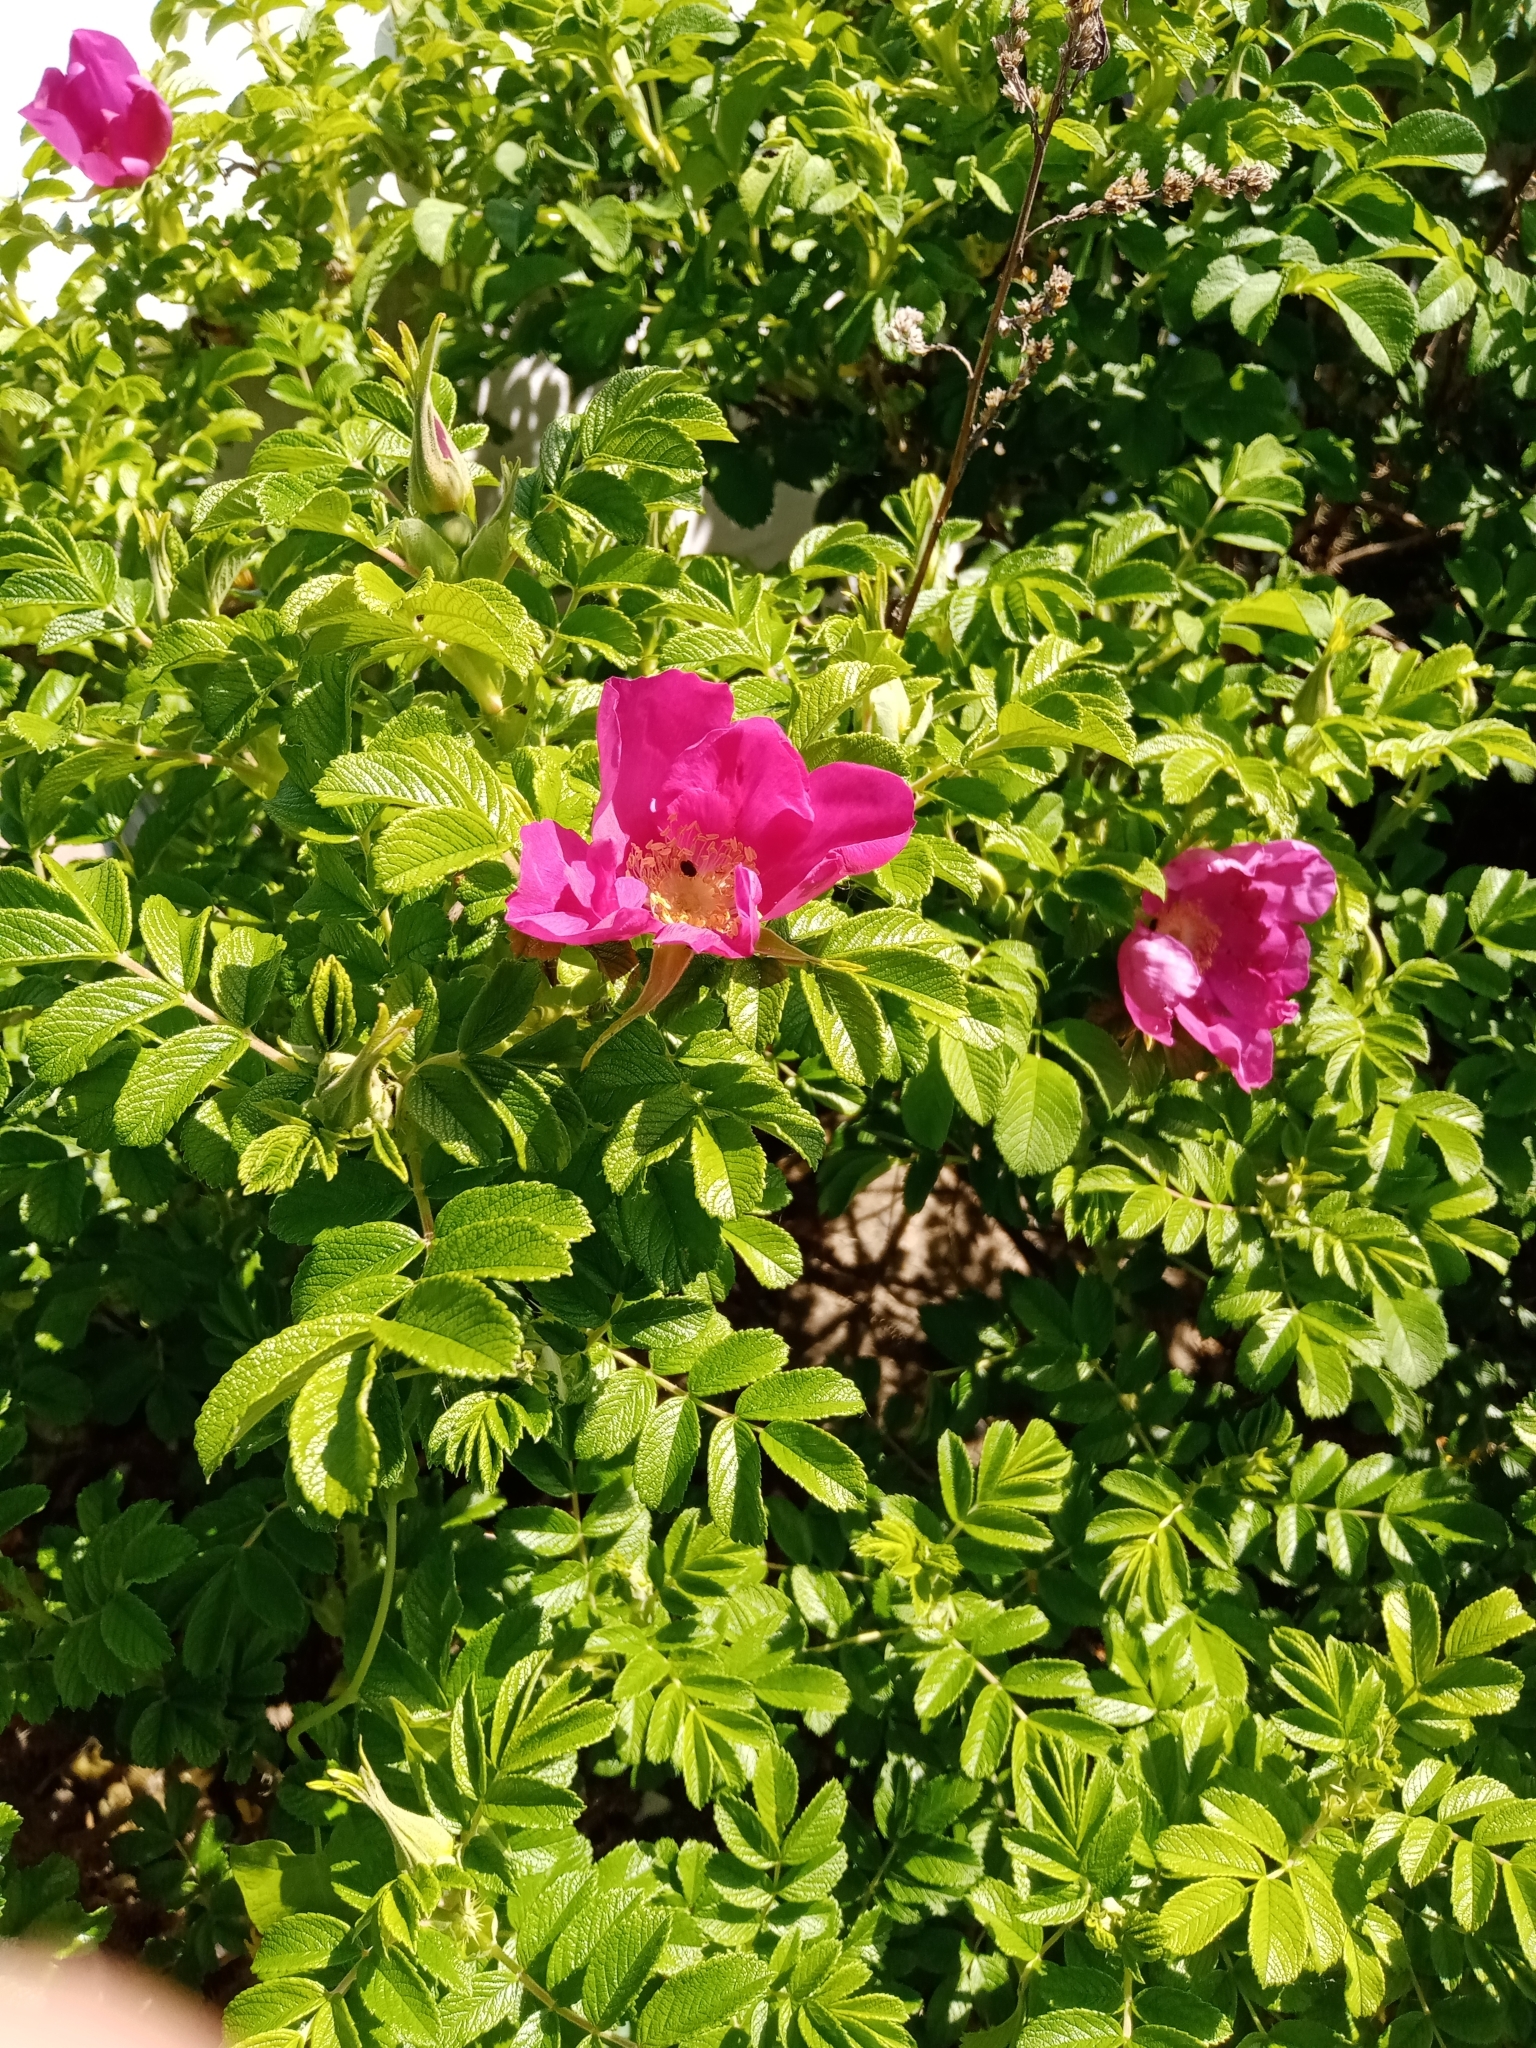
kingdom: Plantae
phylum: Tracheophyta
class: Magnoliopsida
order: Rosales
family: Rosaceae
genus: Rosa
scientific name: Rosa rugosa
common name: Japanese rose
